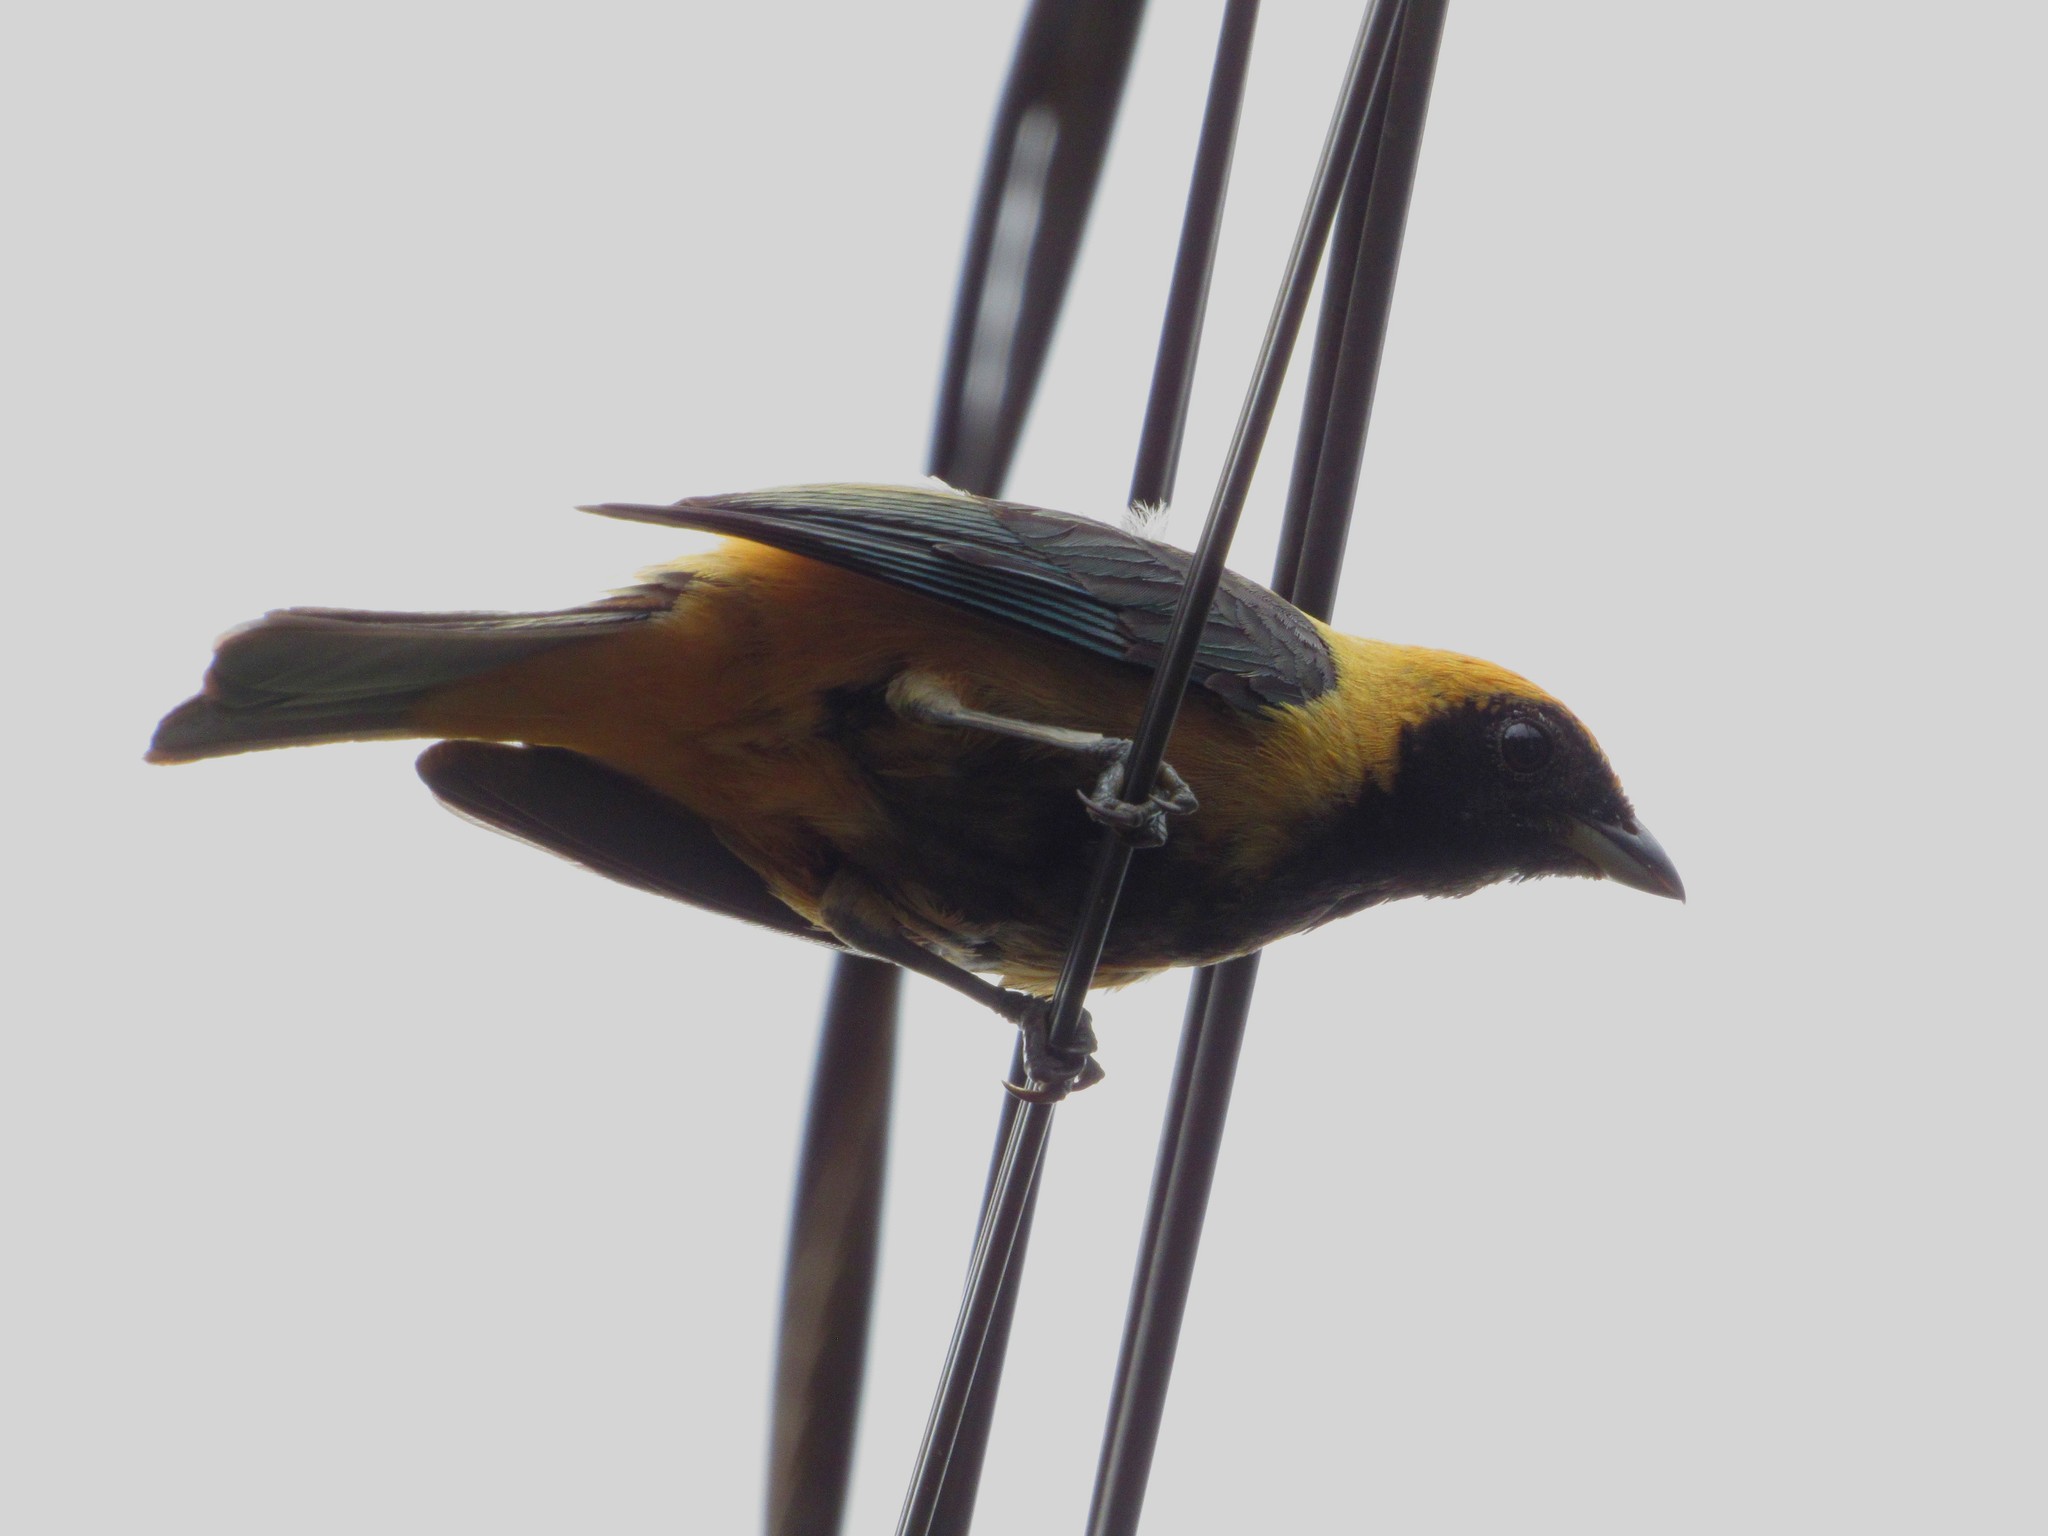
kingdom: Animalia
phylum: Chordata
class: Aves
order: Passeriformes
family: Thraupidae
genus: Stilpnia
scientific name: Stilpnia cayana
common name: Burnished-buff tanager
